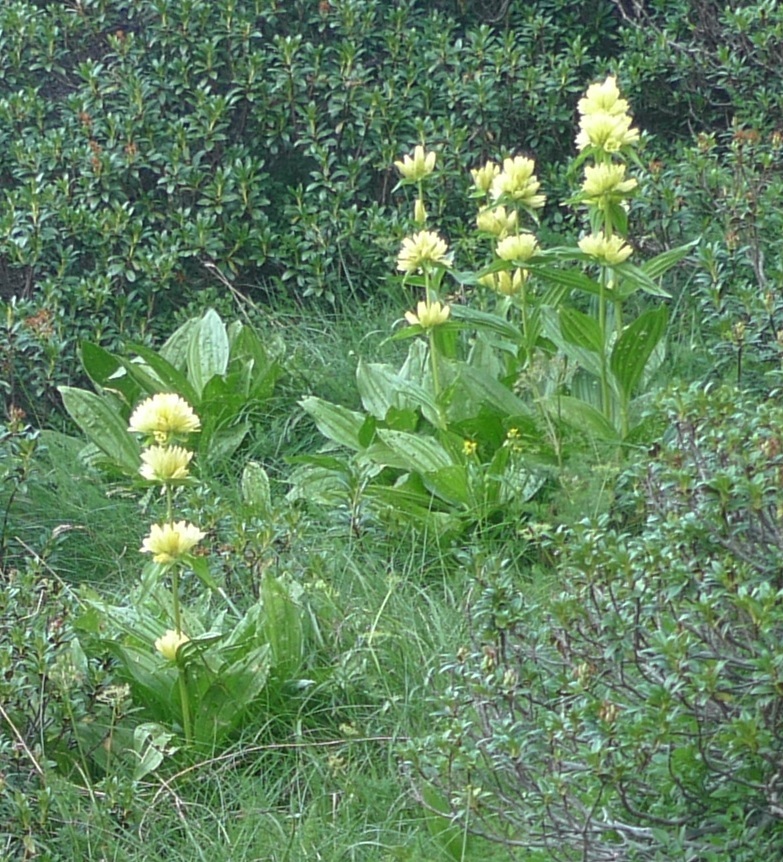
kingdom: Plantae
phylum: Tracheophyta
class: Magnoliopsida
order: Gentianales
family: Gentianaceae
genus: Gentiana
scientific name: Gentiana burseri
